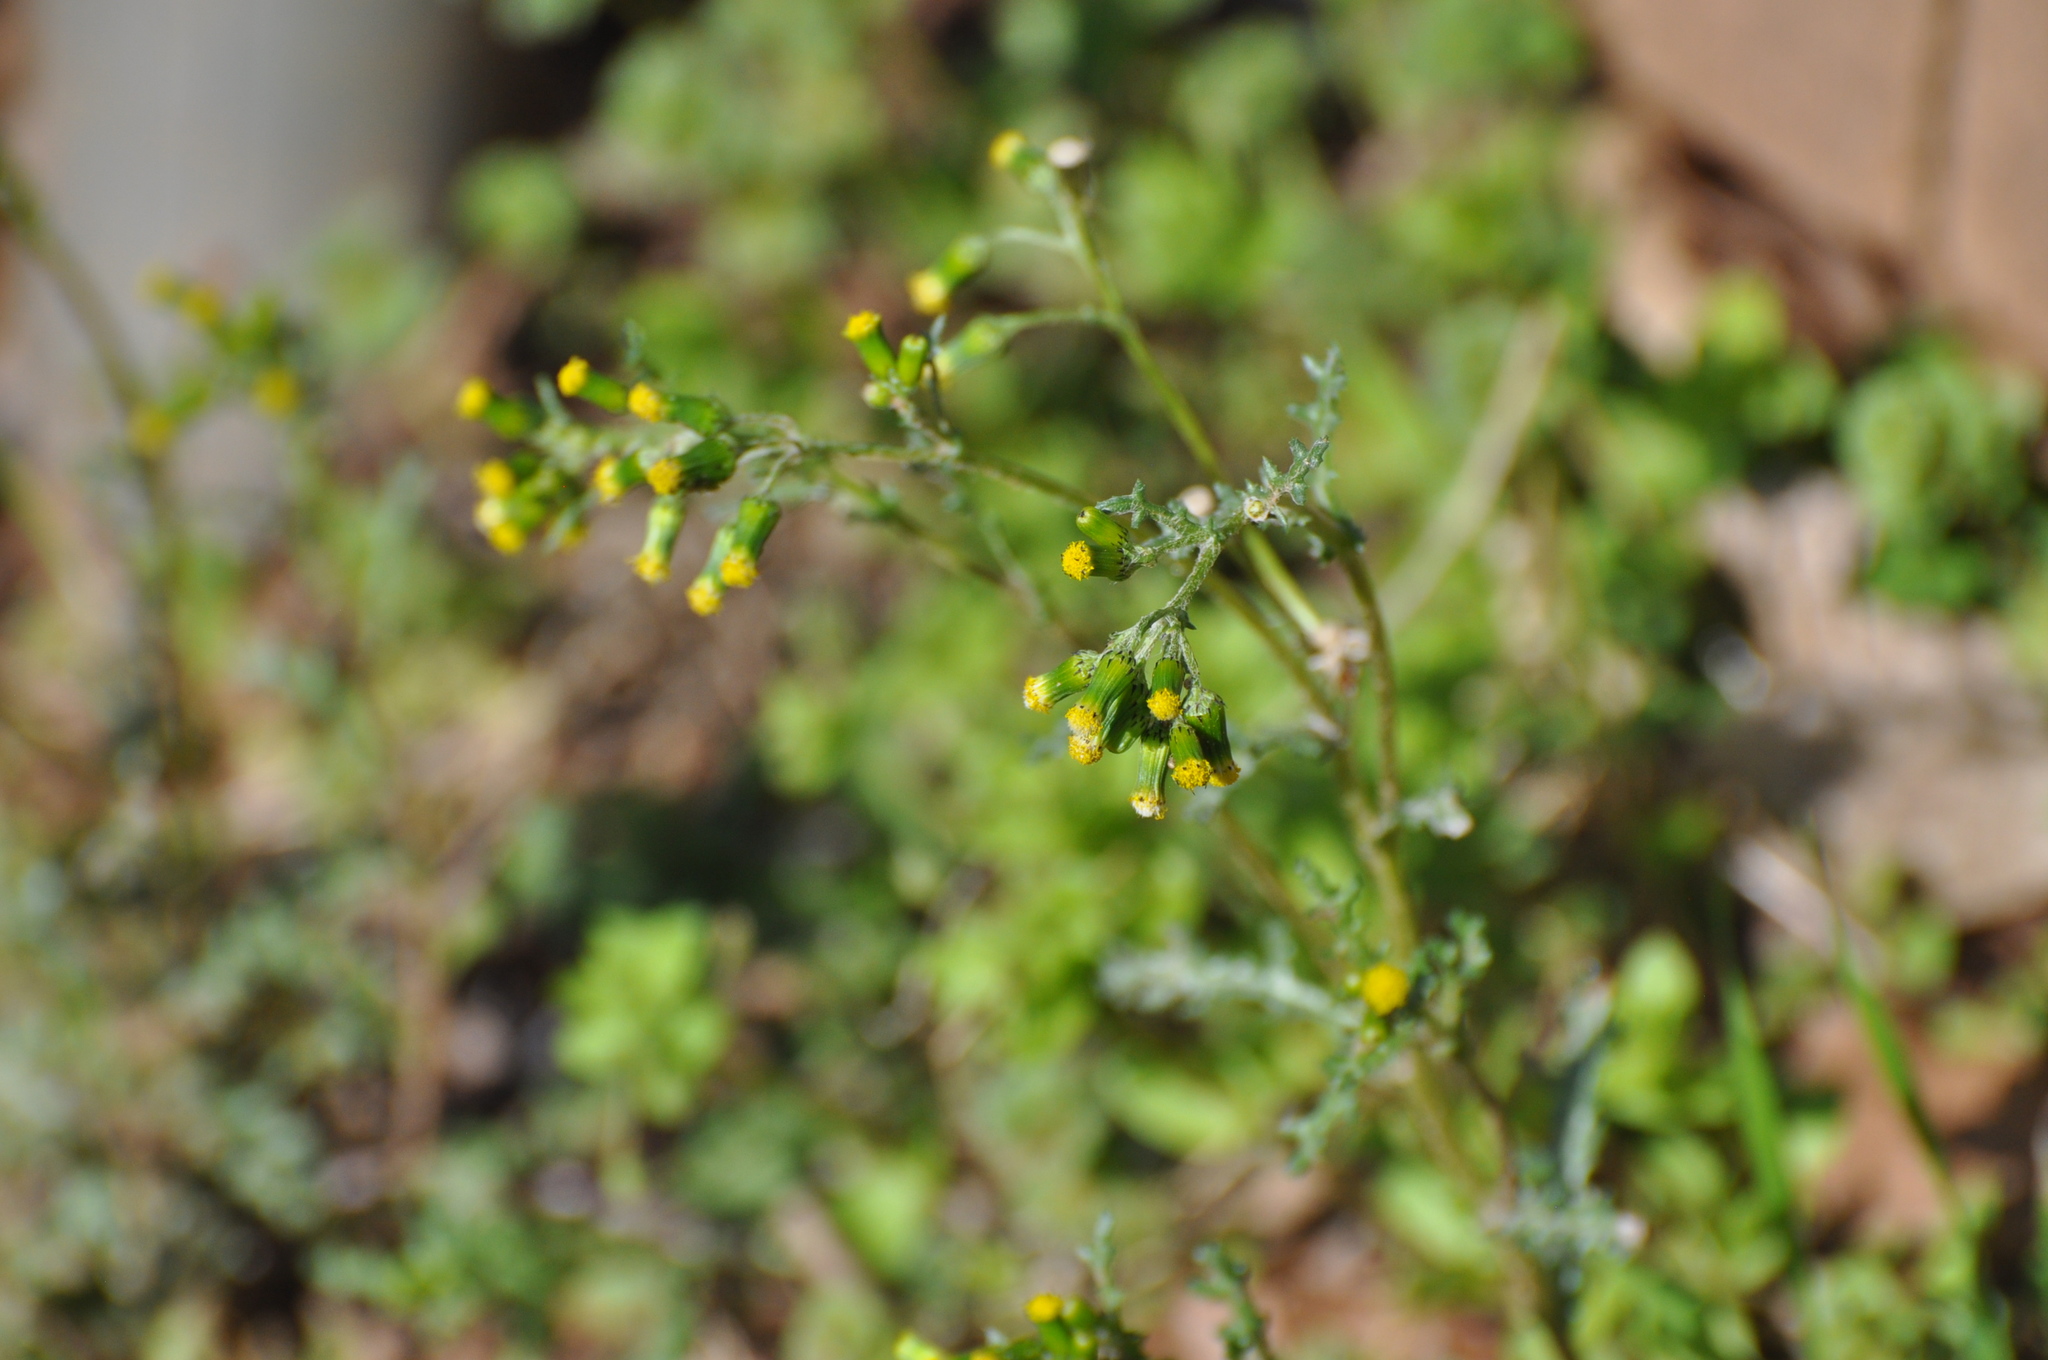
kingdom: Plantae
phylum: Tracheophyta
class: Magnoliopsida
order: Asterales
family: Asteraceae
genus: Senecio
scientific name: Senecio vulgaris
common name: Old-man-in-the-spring
